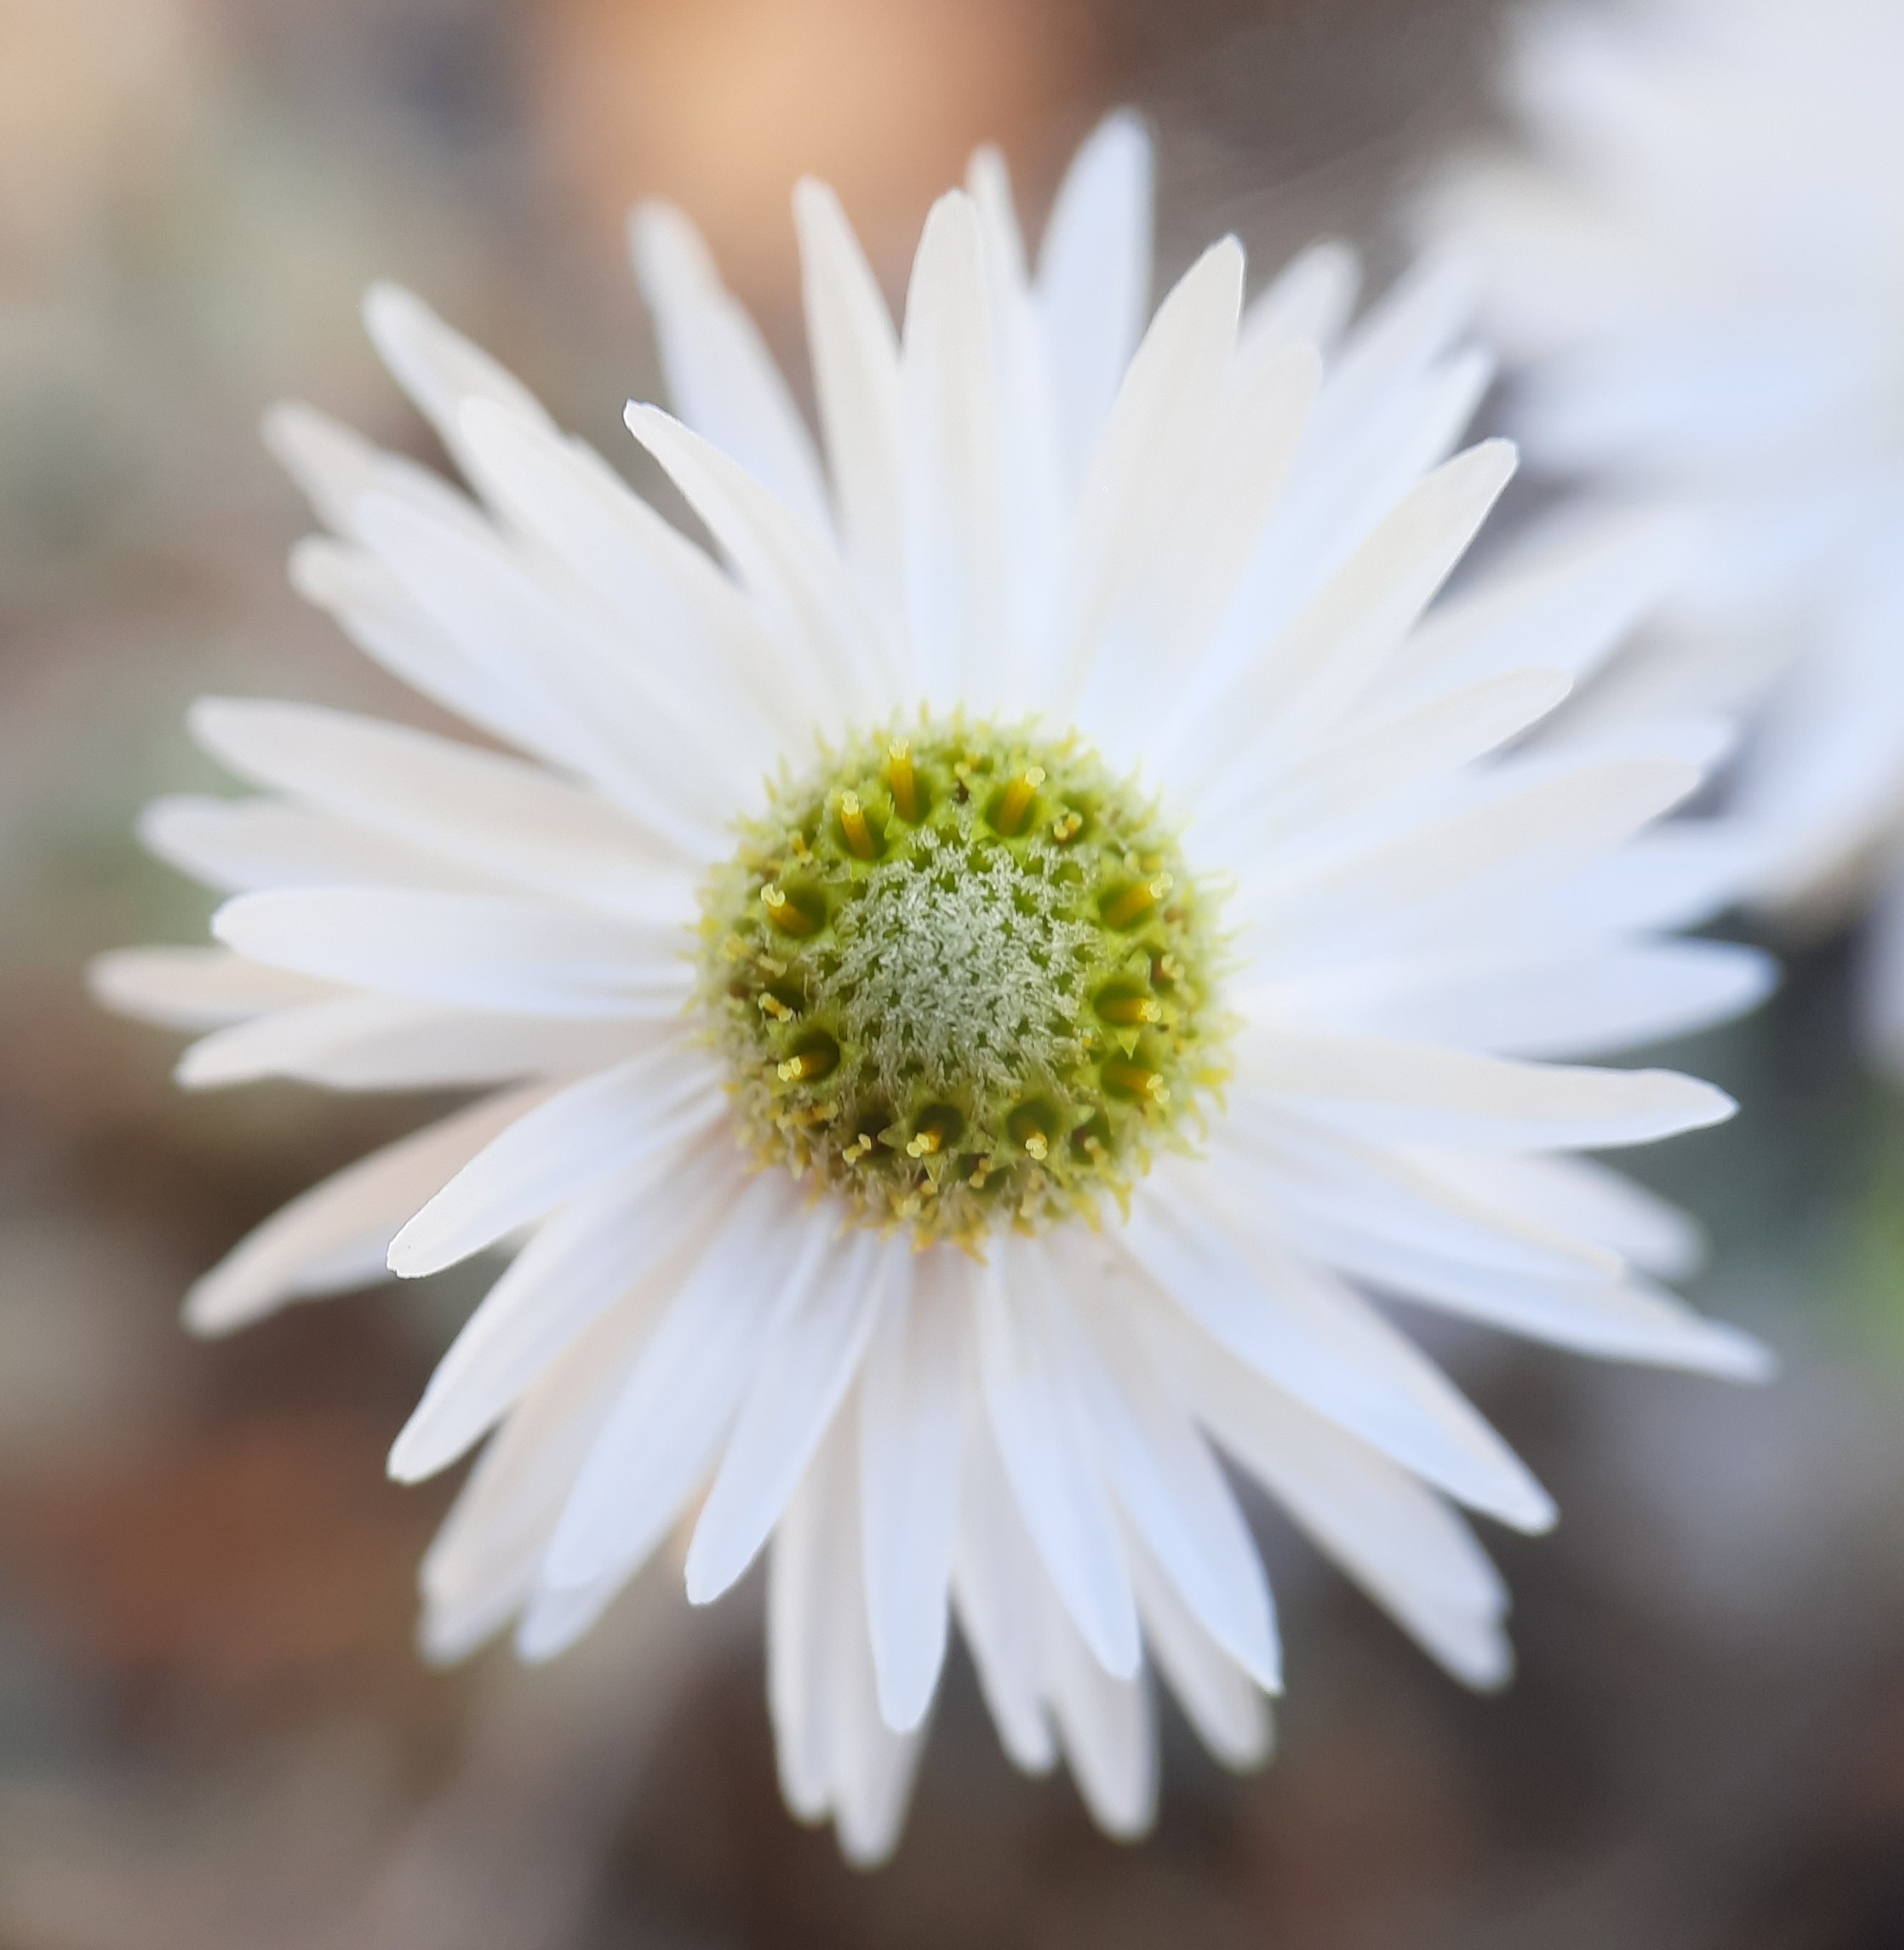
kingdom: Plantae
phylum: Tracheophyta
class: Magnoliopsida
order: Asterales
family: Asteraceae
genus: Anaphalioides
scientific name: Anaphalioides bellidioides
